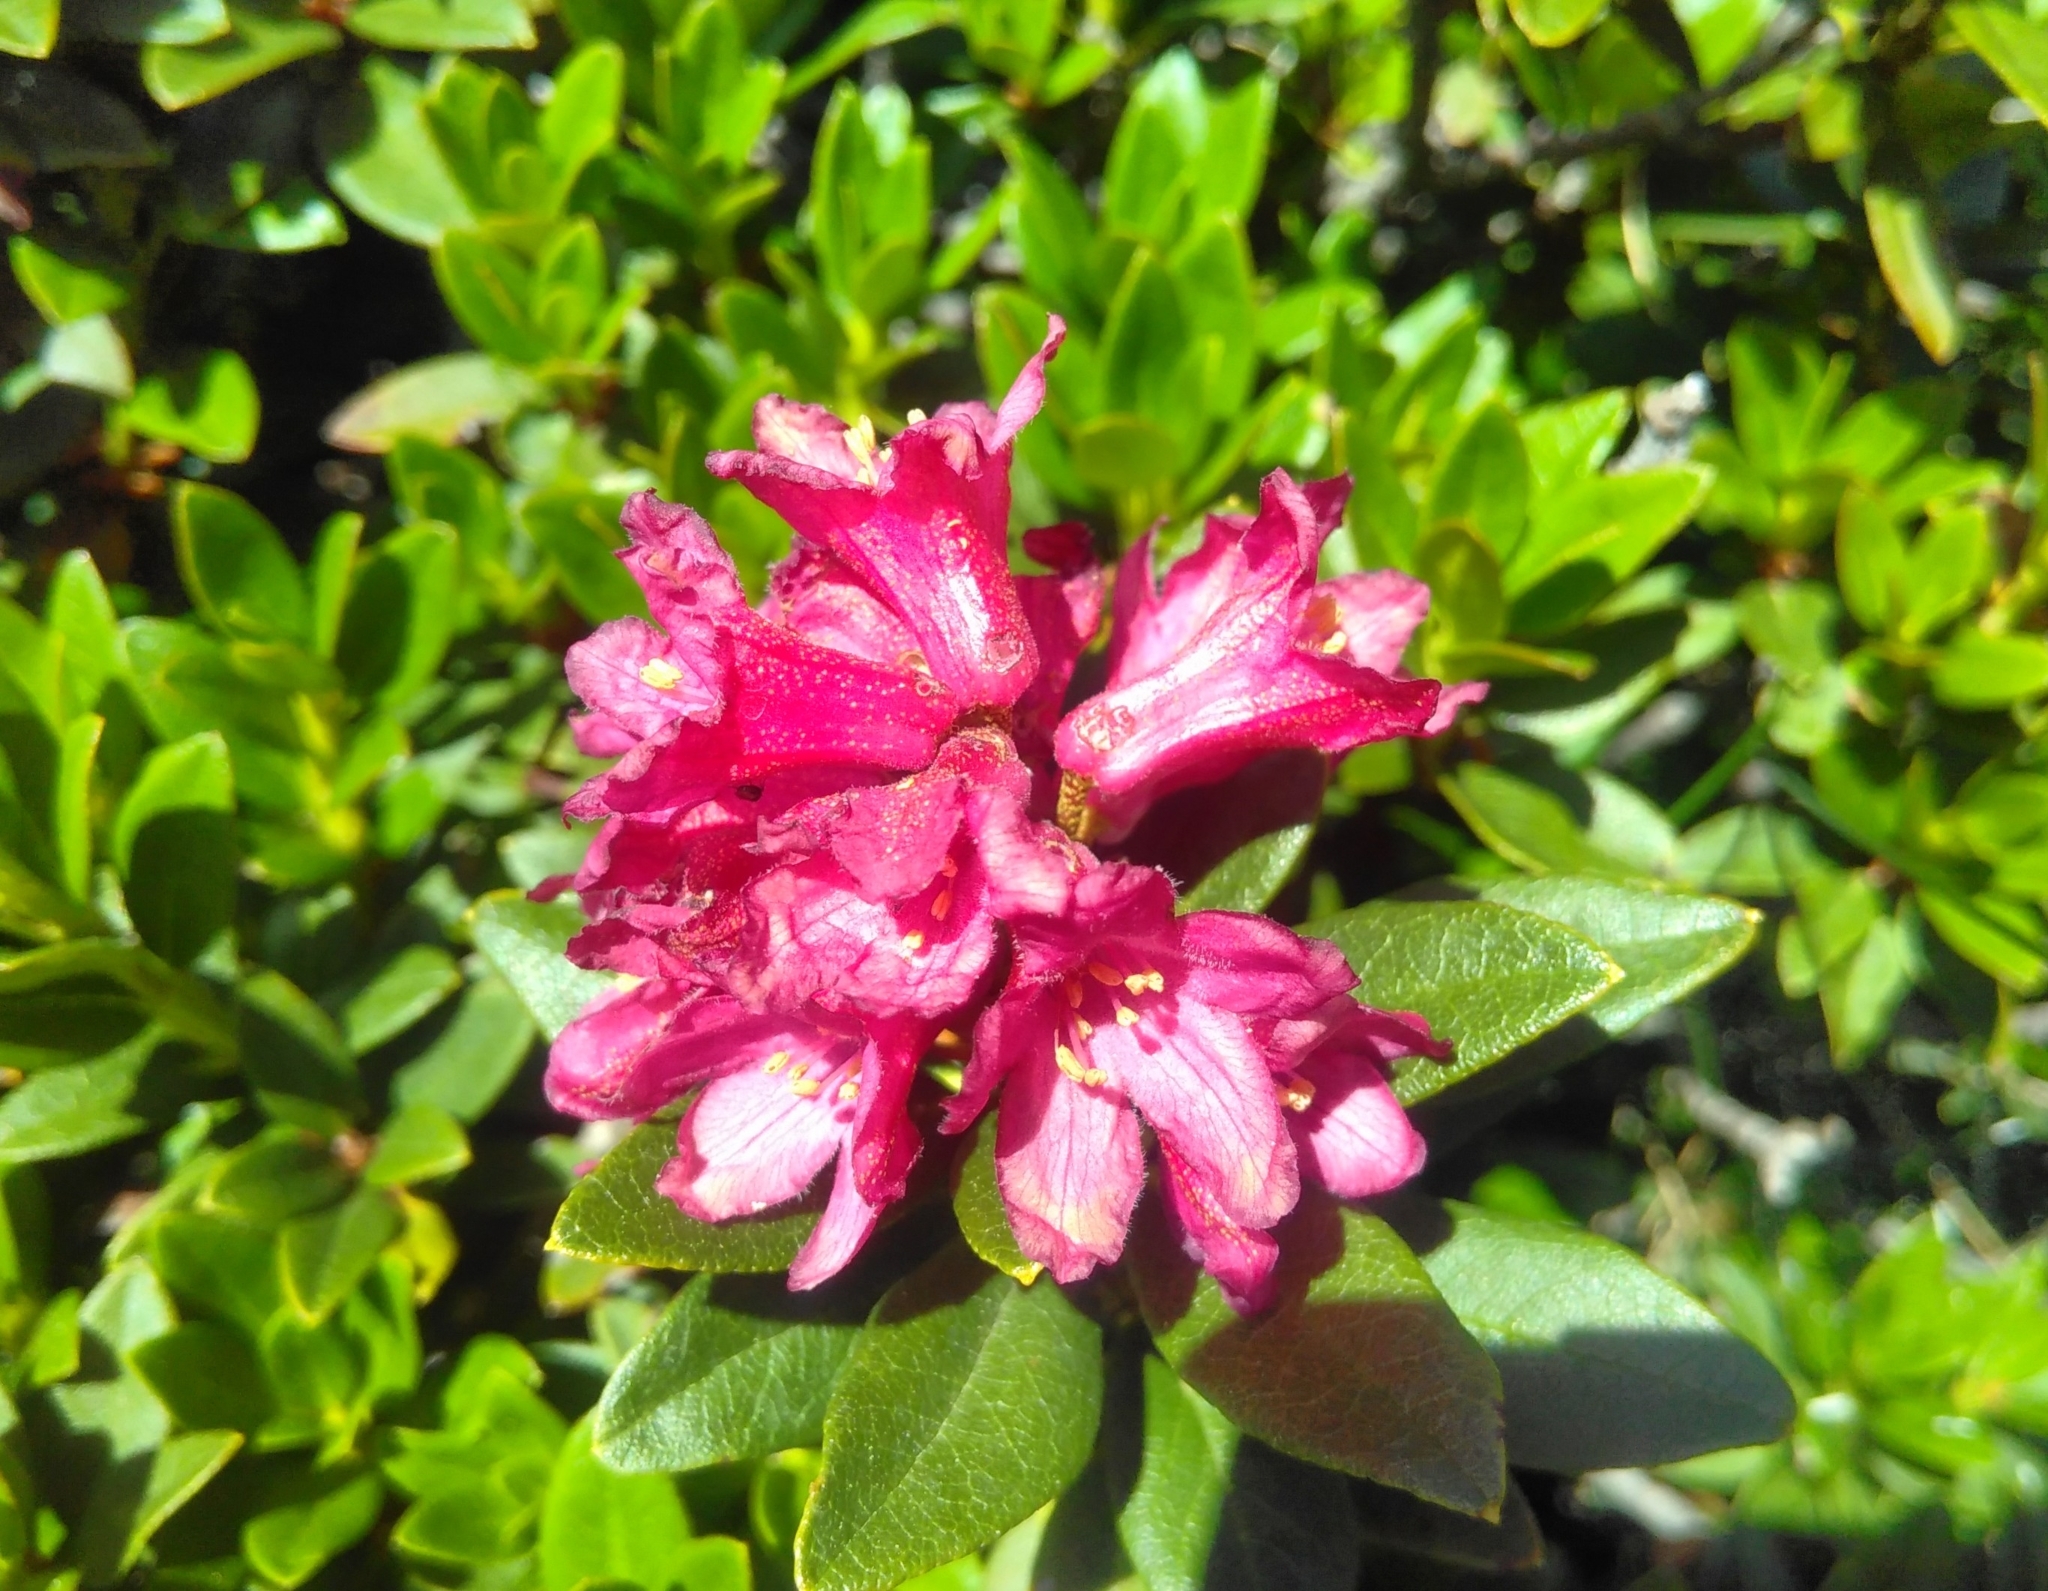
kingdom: Plantae
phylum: Tracheophyta
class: Magnoliopsida
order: Ericales
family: Ericaceae
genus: Rhododendron
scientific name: Rhododendron ferrugineum
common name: Alpenrose
